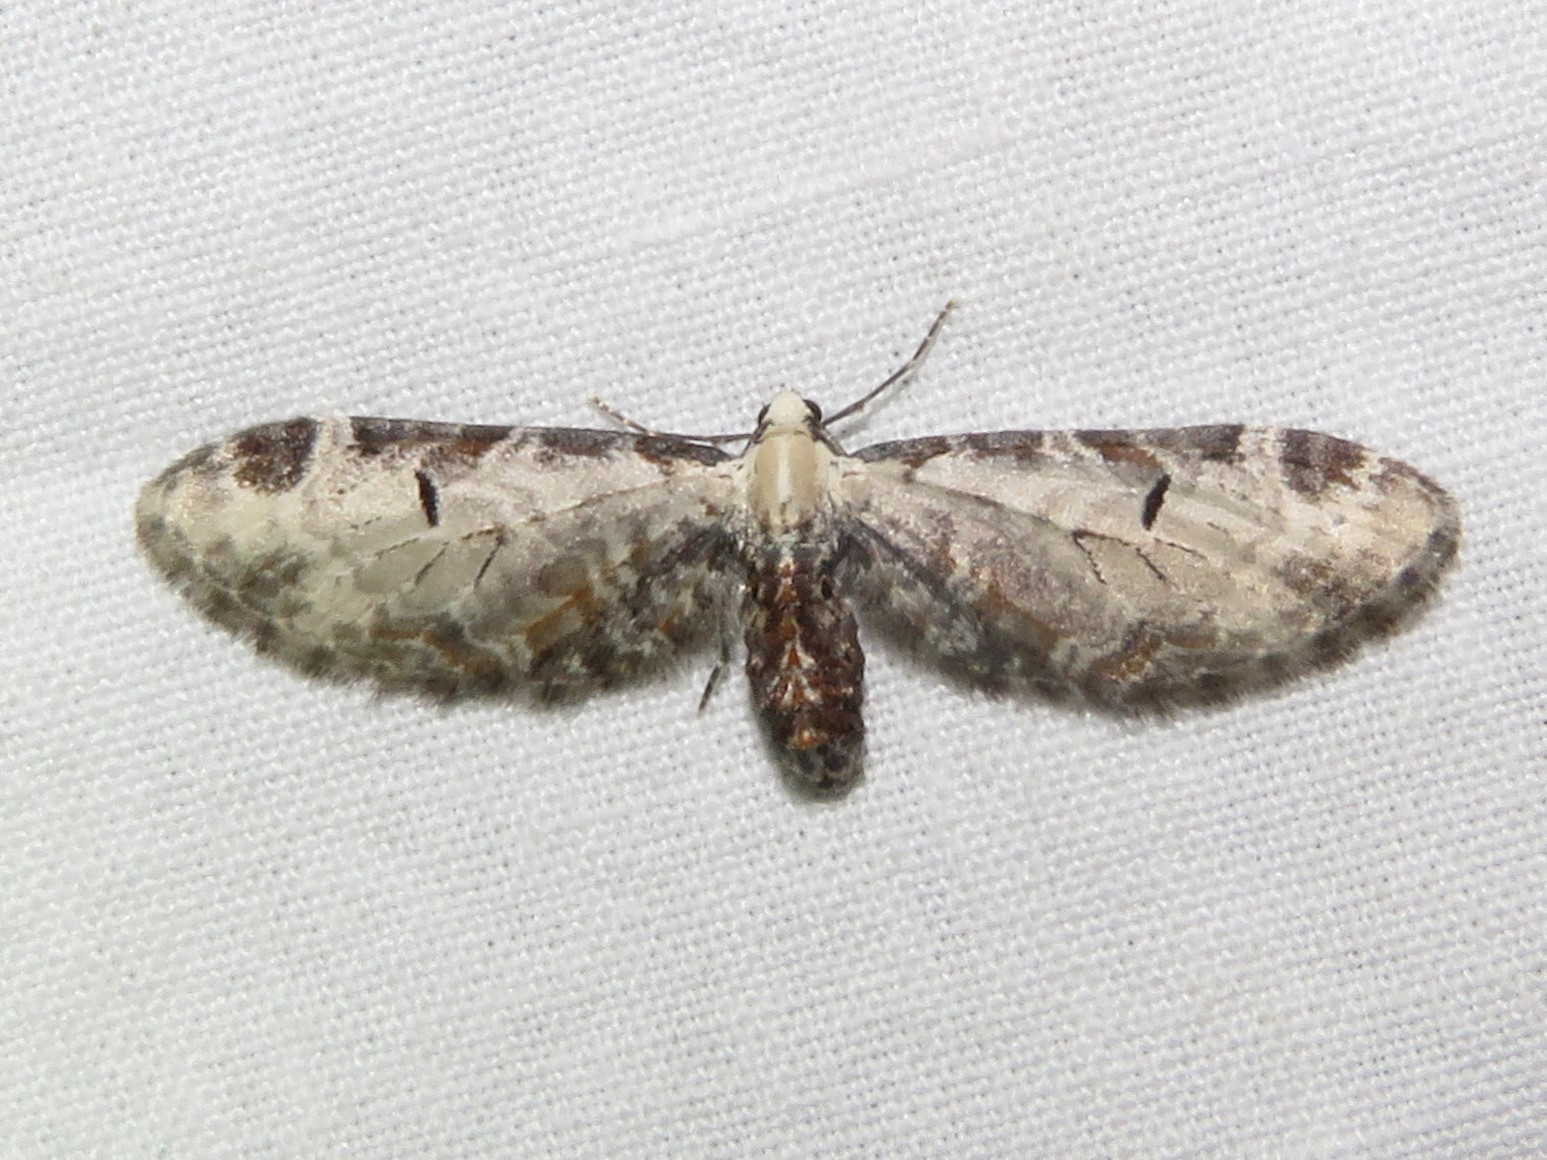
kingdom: Animalia
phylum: Arthropoda
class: Insecta
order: Lepidoptera
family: Geometridae
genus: Eupithecia
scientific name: Eupithecia ravocostaliata
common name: Great varigated pug
